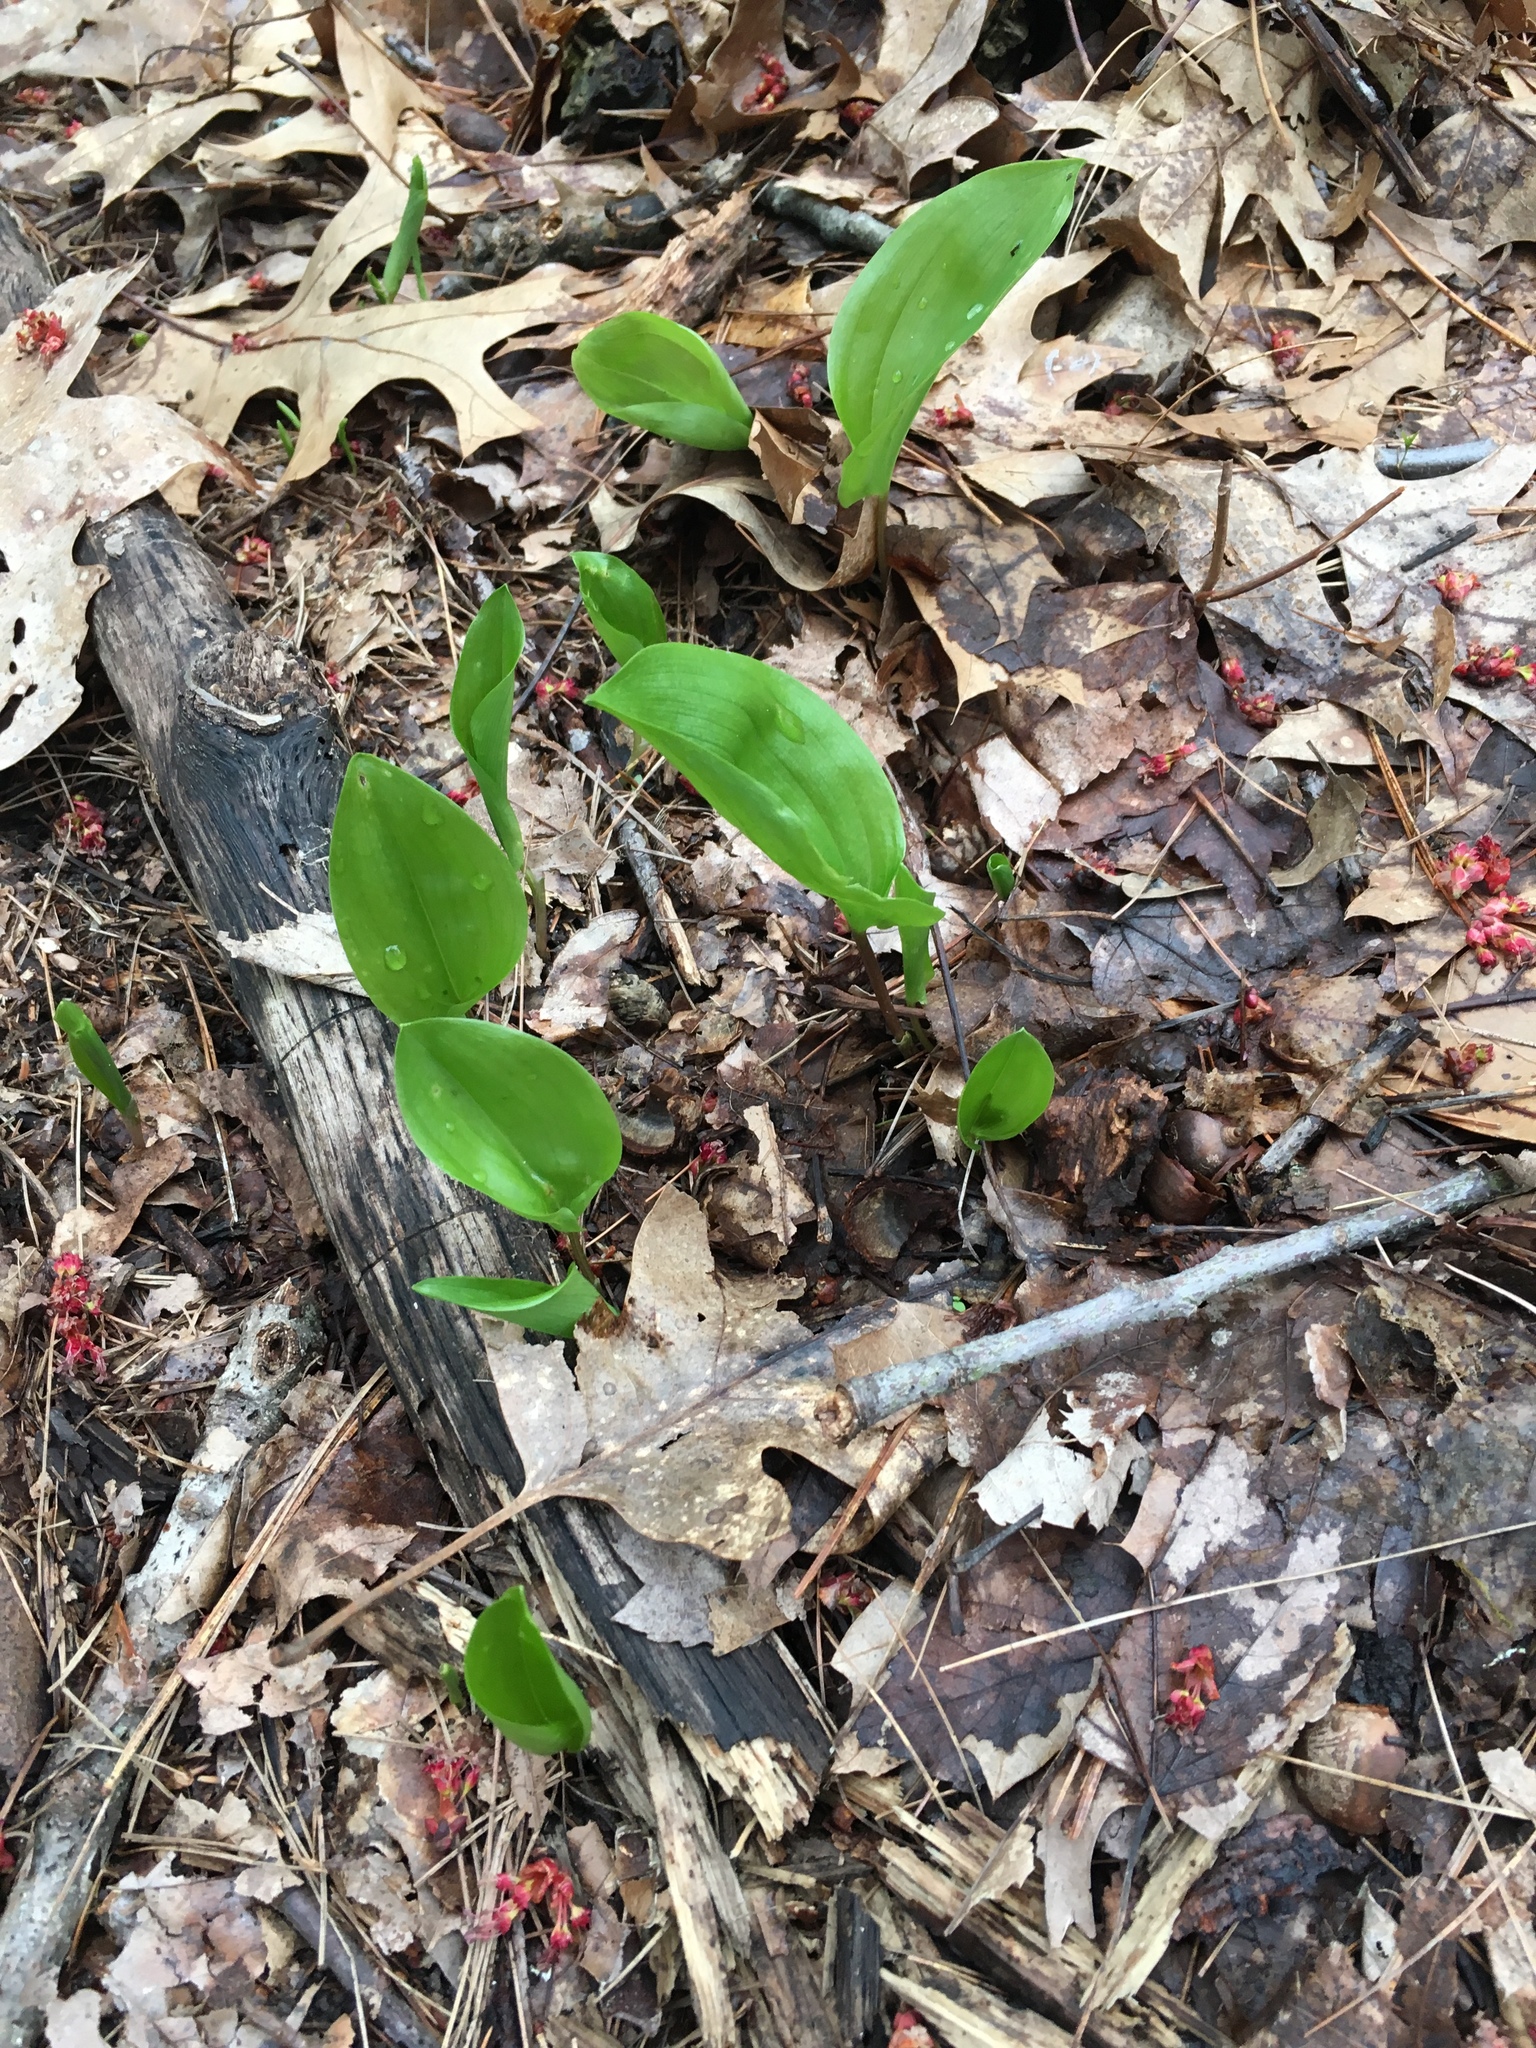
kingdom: Plantae
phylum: Tracheophyta
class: Liliopsida
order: Asparagales
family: Asparagaceae
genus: Maianthemum
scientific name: Maianthemum canadense
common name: False lily-of-the-valley
